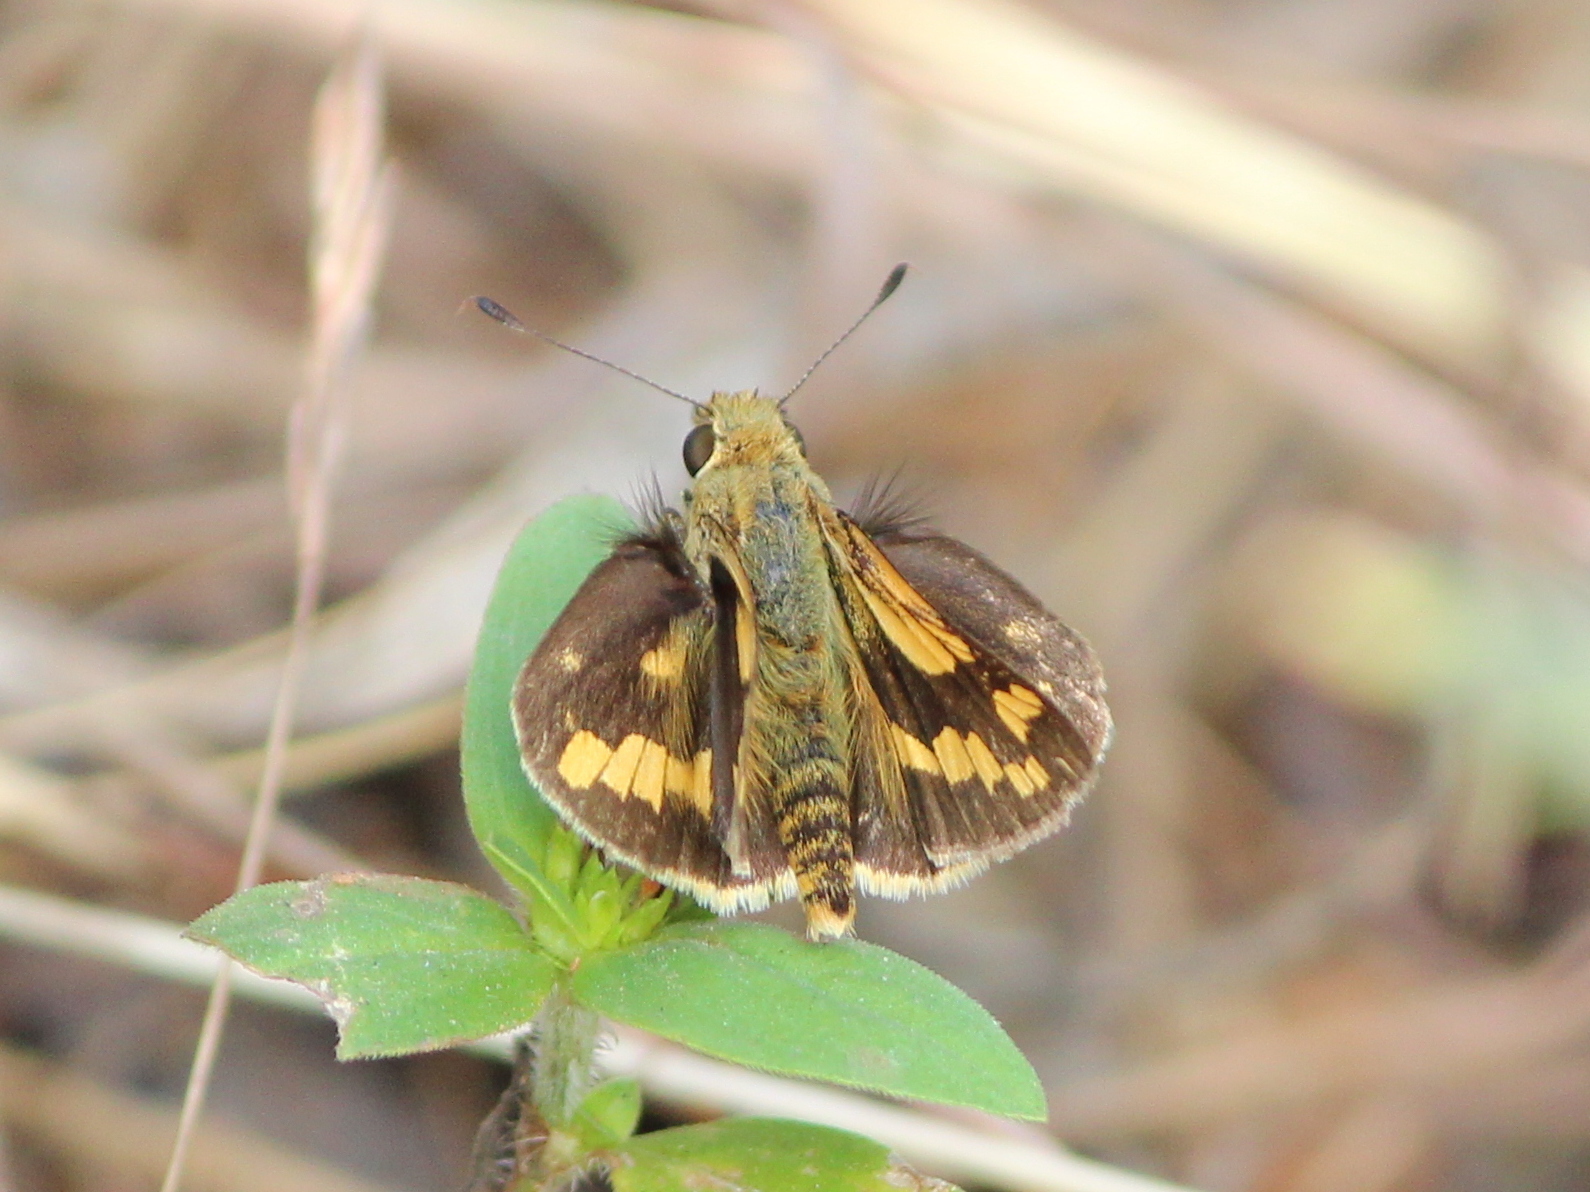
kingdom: Animalia
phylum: Arthropoda
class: Insecta
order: Lepidoptera
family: Hesperiidae
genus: Potanthus
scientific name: Potanthus pseudomaesa
